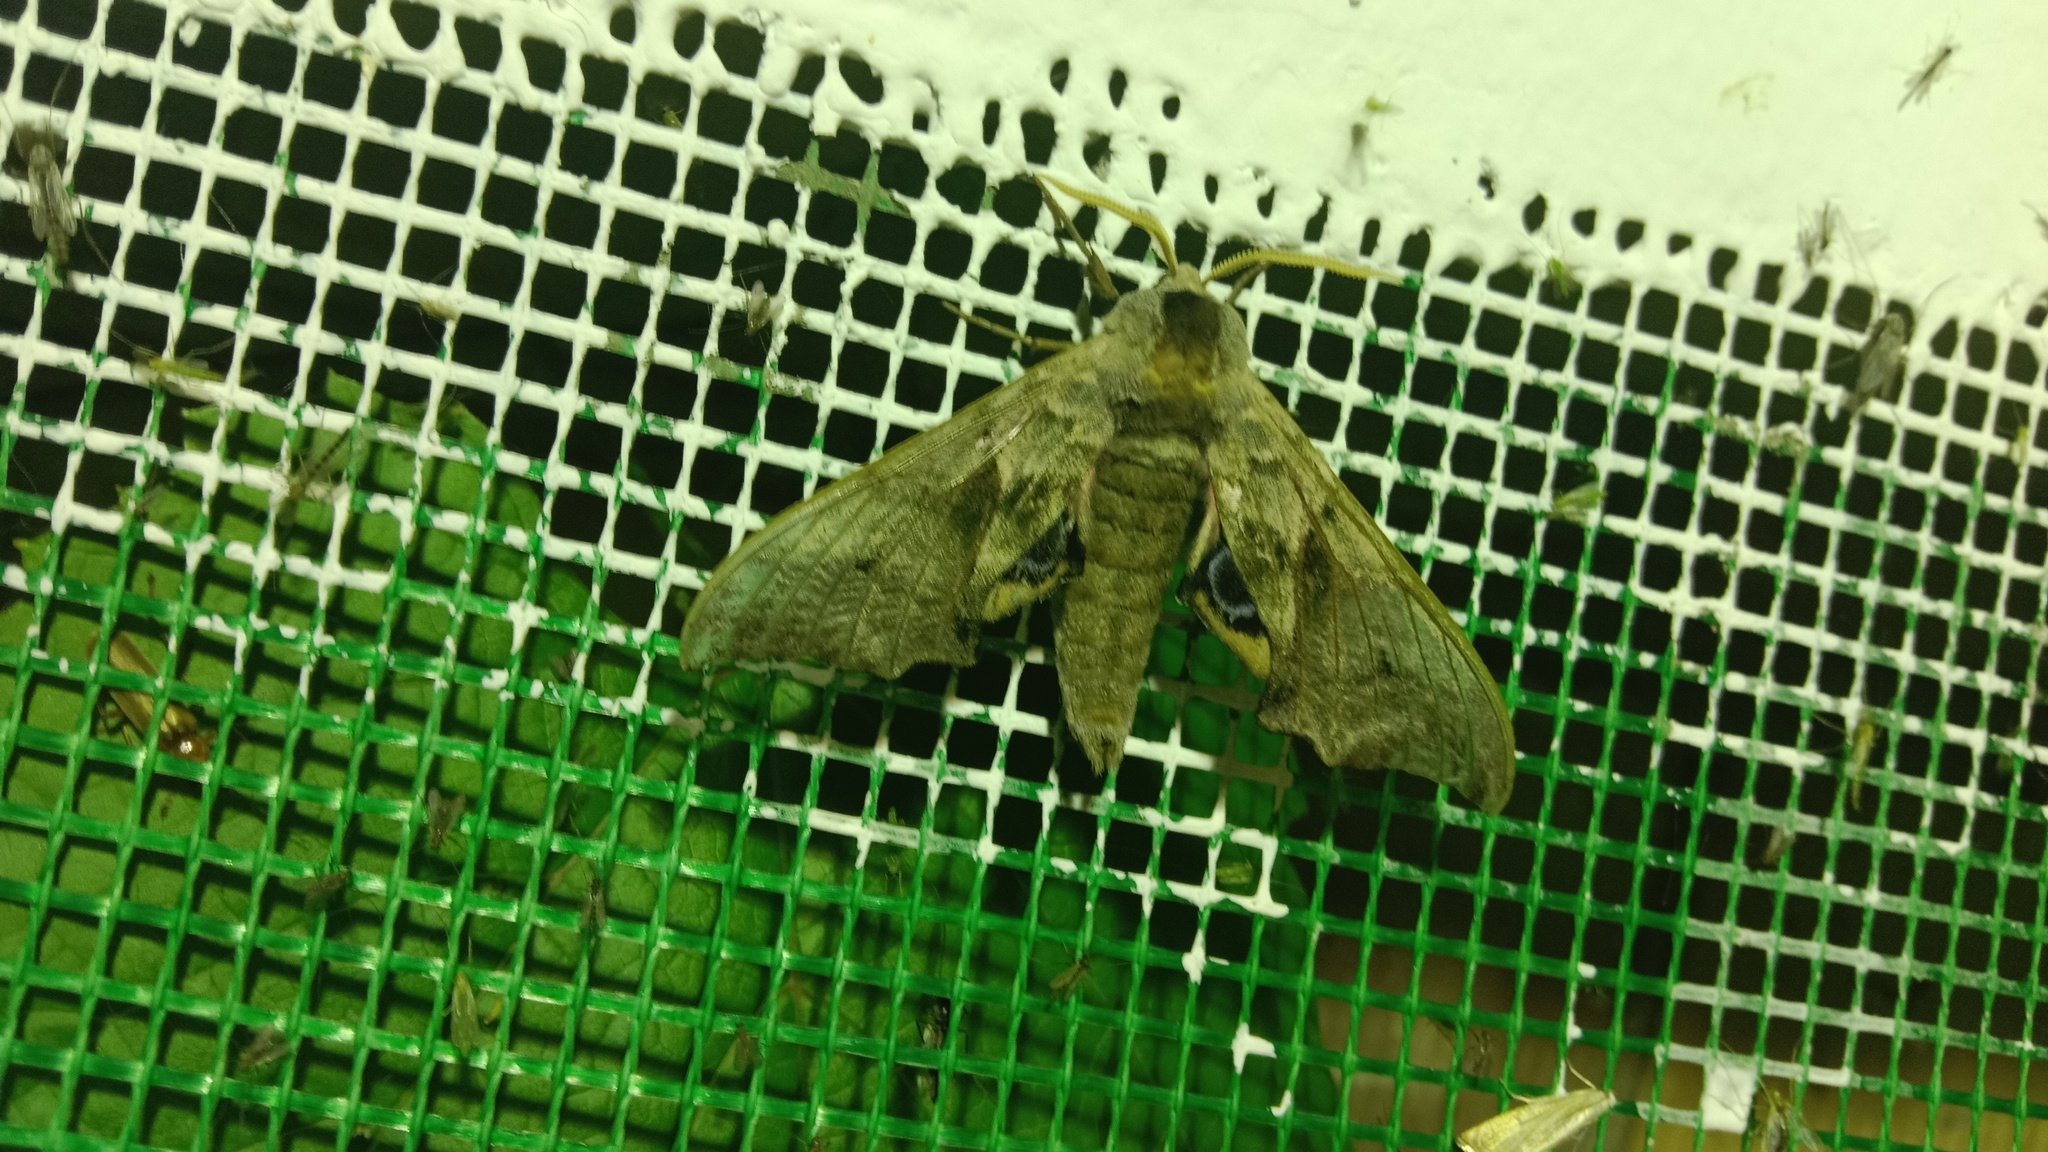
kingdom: Animalia
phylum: Arthropoda
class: Insecta
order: Lepidoptera
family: Sphingidae
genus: Smerinthus
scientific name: Smerinthus ocellata
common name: Eyed hawk-moth
